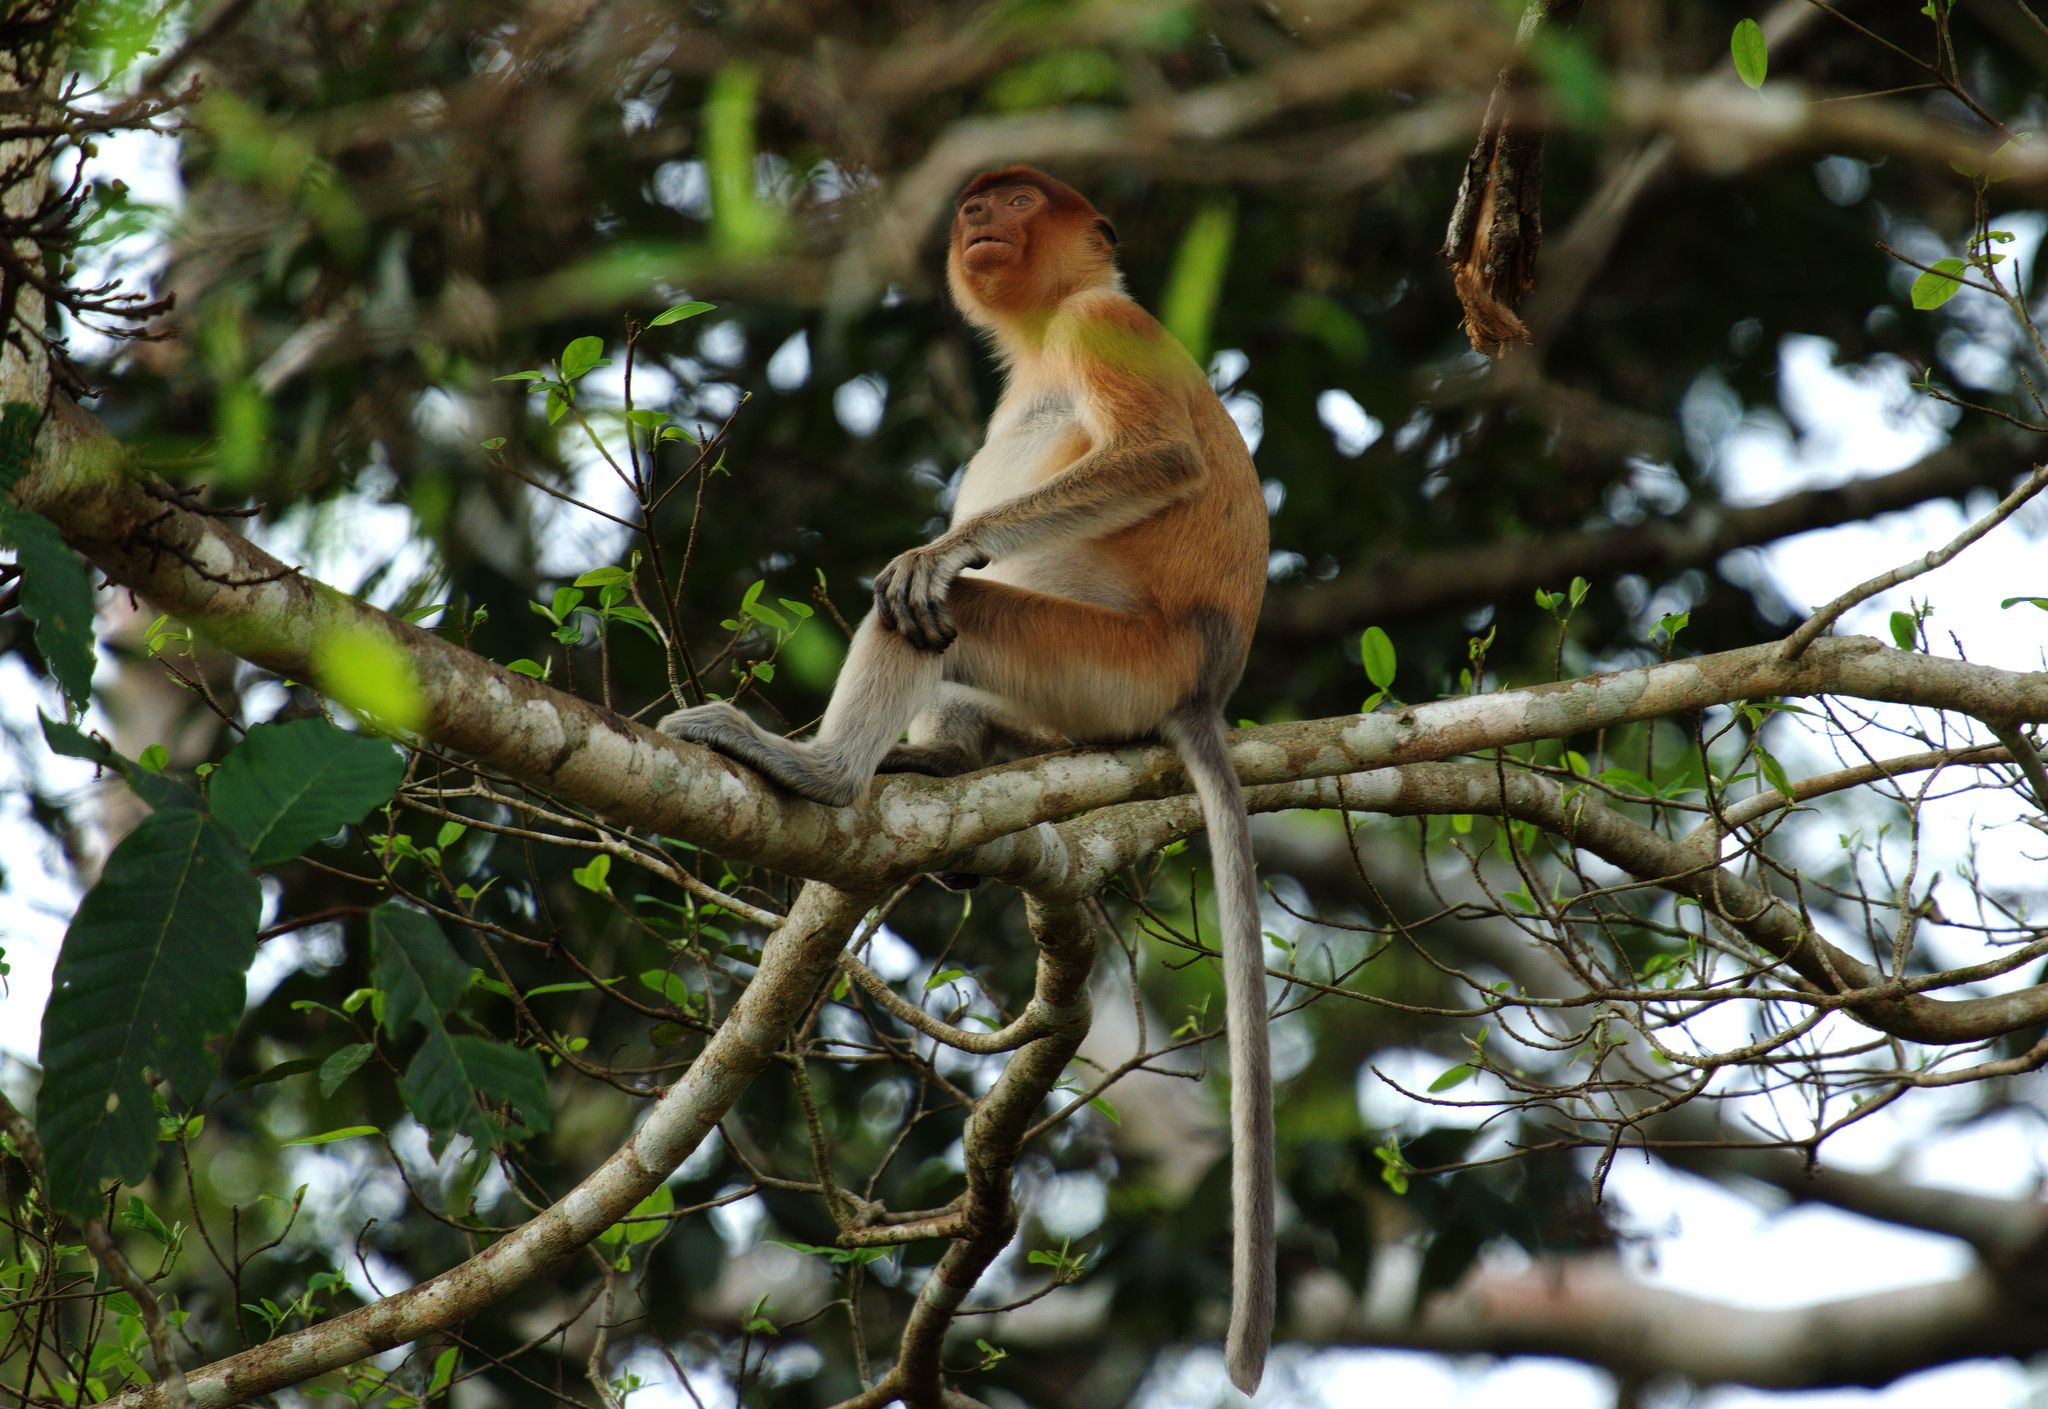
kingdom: Animalia
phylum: Chordata
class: Mammalia
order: Primates
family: Cercopithecidae
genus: Nasalis
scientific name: Nasalis larvatus
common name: Proboscis monkey
